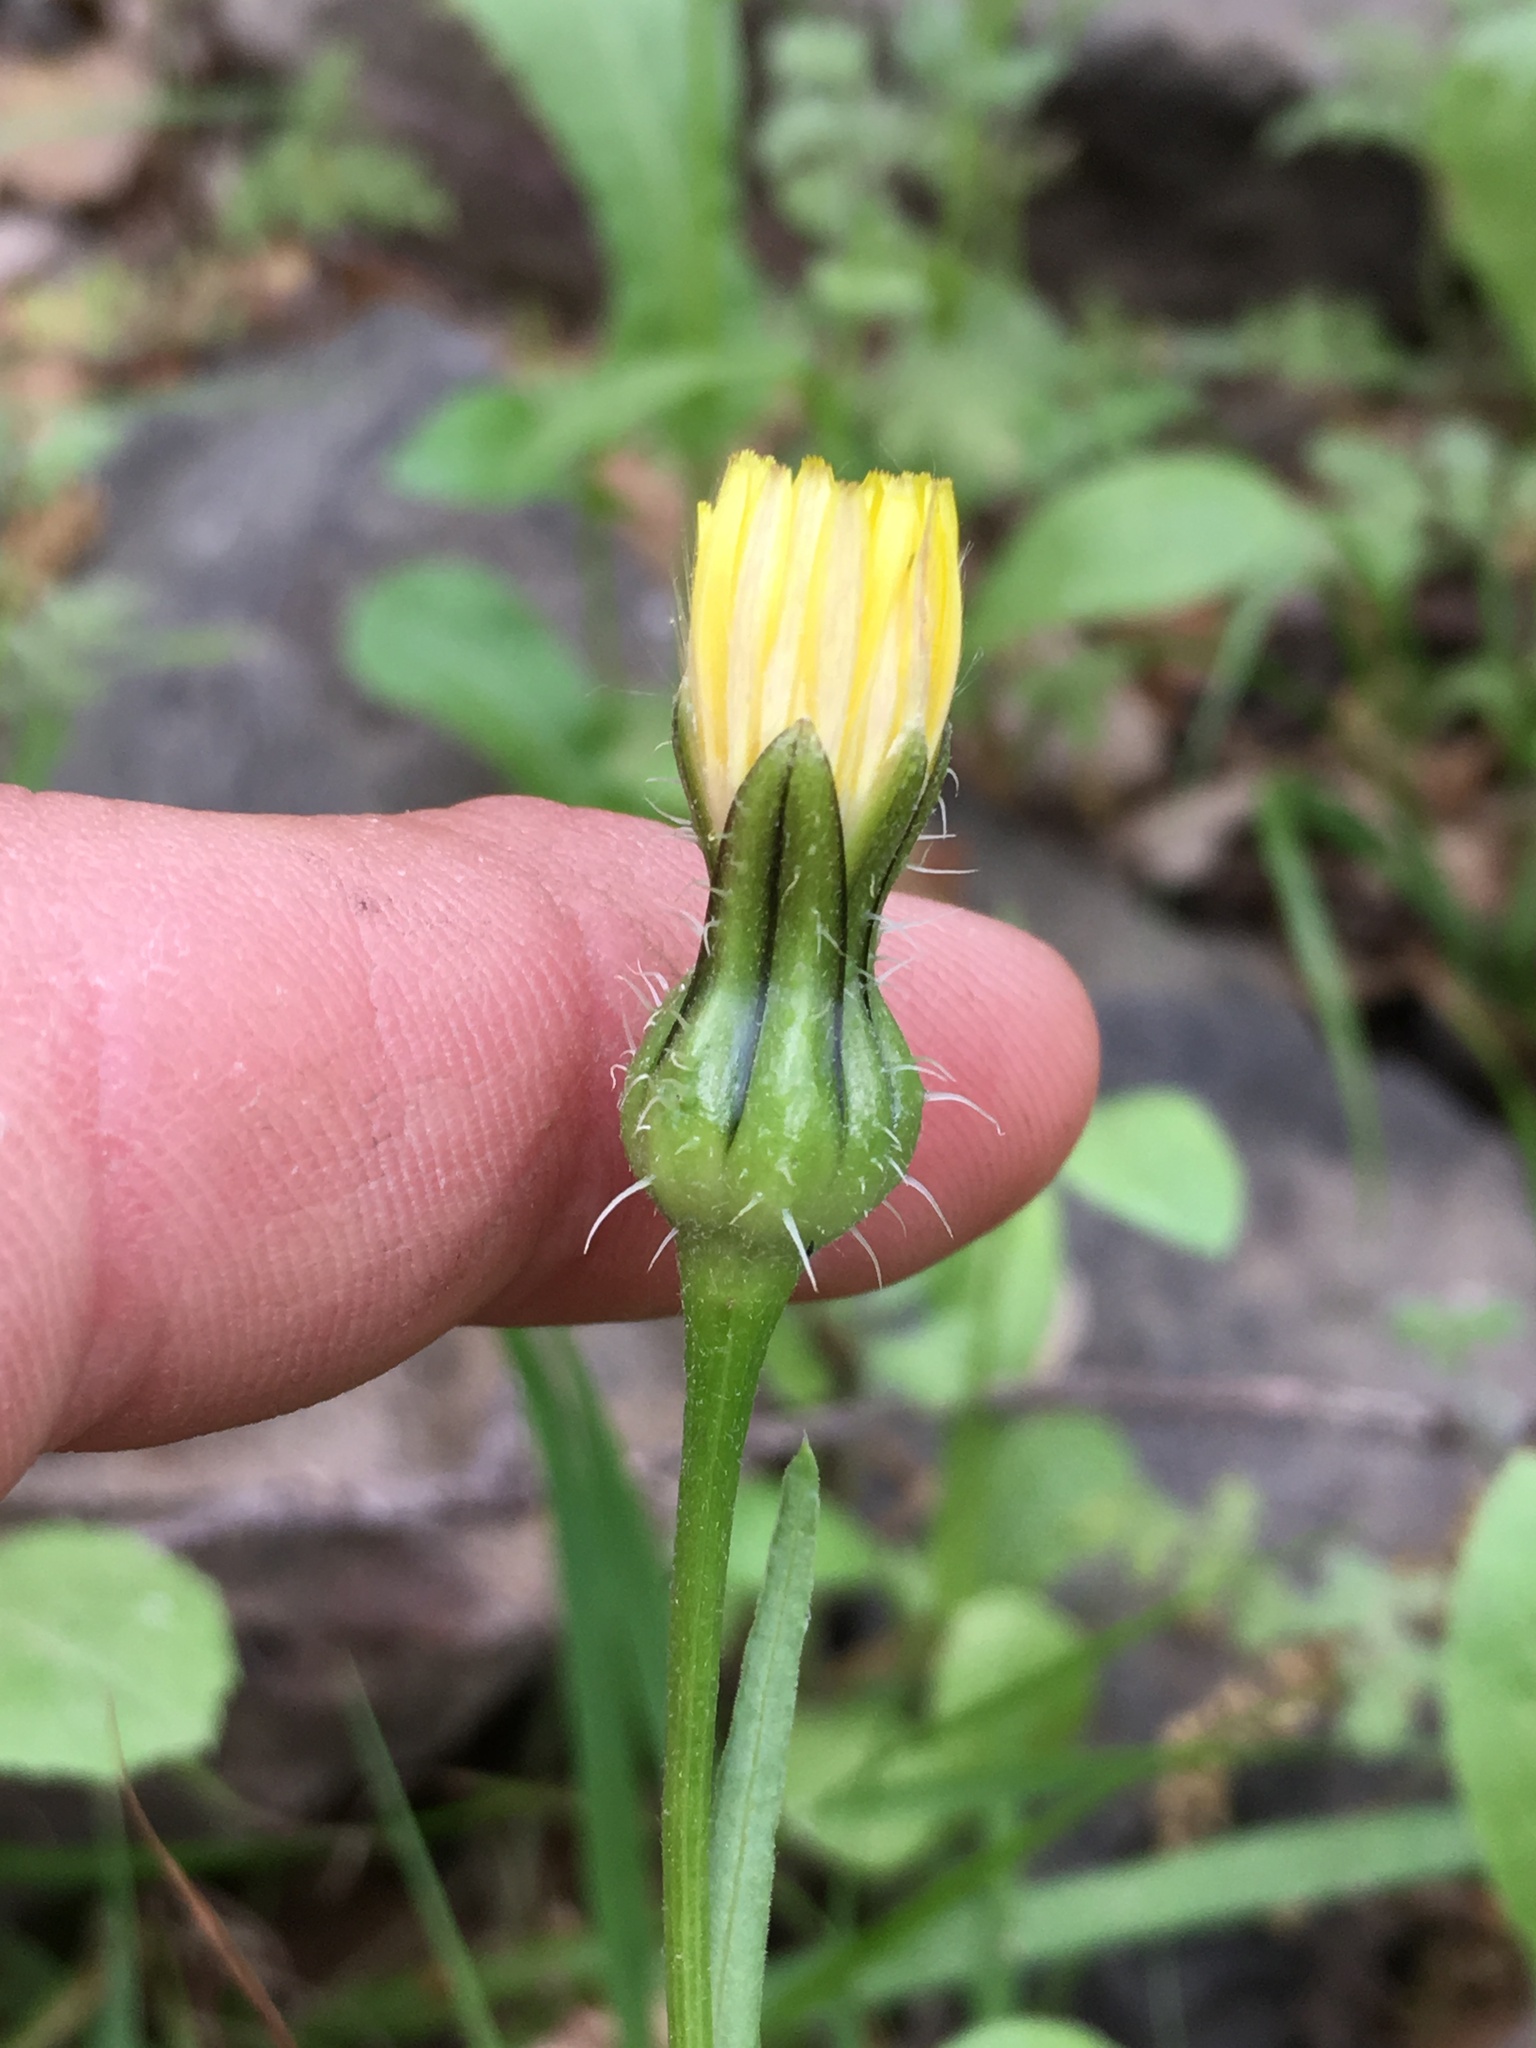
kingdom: Plantae
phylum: Tracheophyta
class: Magnoliopsida
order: Asterales
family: Asteraceae
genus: Urospermum
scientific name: Urospermum picroides
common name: False hawkbit
